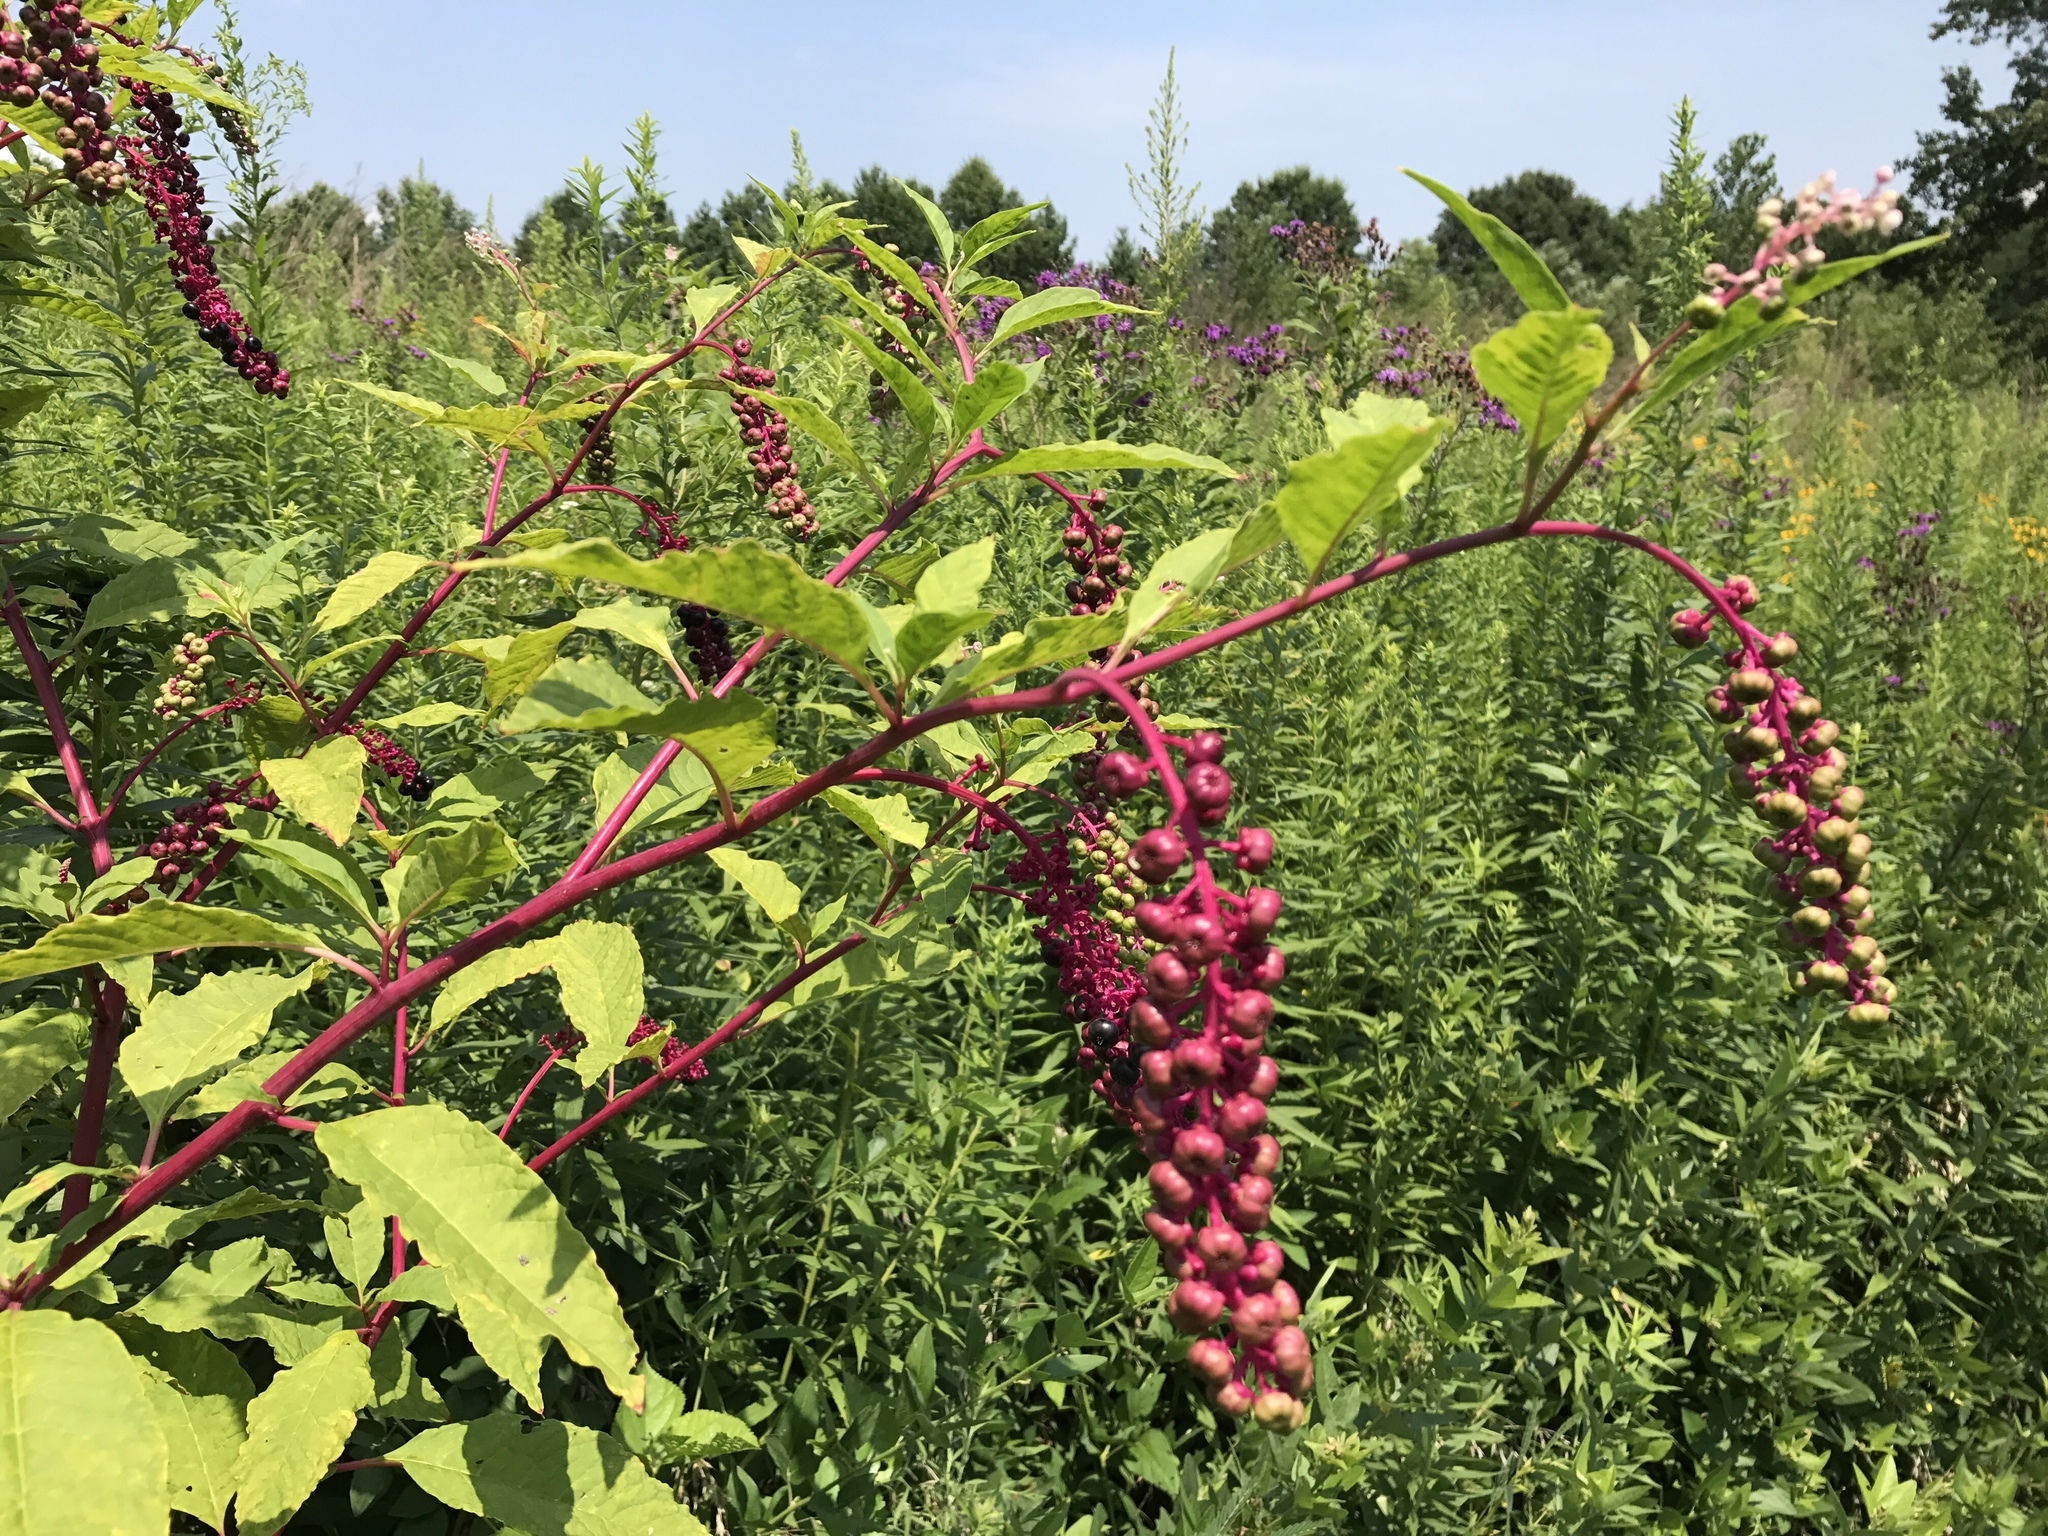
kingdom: Plantae
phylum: Tracheophyta
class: Magnoliopsida
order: Caryophyllales
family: Phytolaccaceae
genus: Phytolacca
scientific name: Phytolacca americana
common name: American pokeweed
